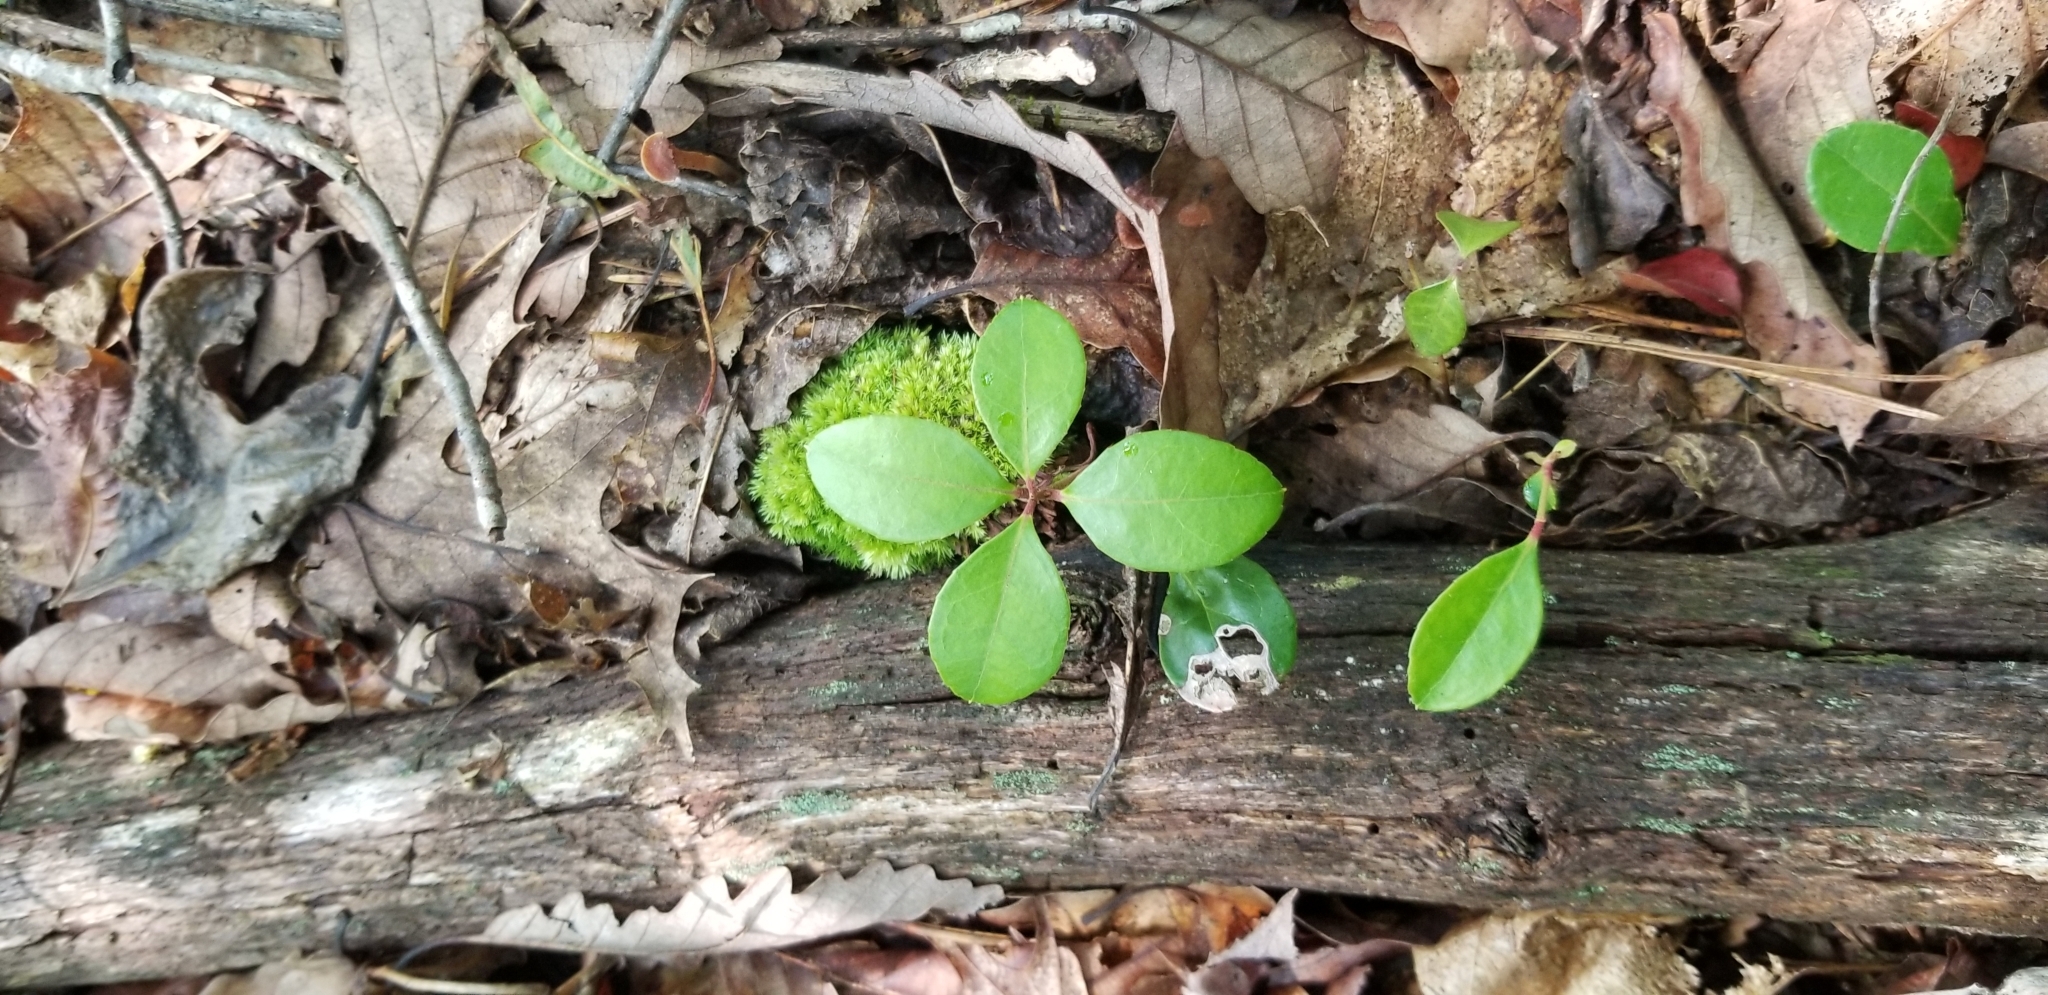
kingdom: Plantae
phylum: Tracheophyta
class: Magnoliopsida
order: Ericales
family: Ericaceae
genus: Gaultheria
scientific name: Gaultheria procumbens
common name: Checkerberry
